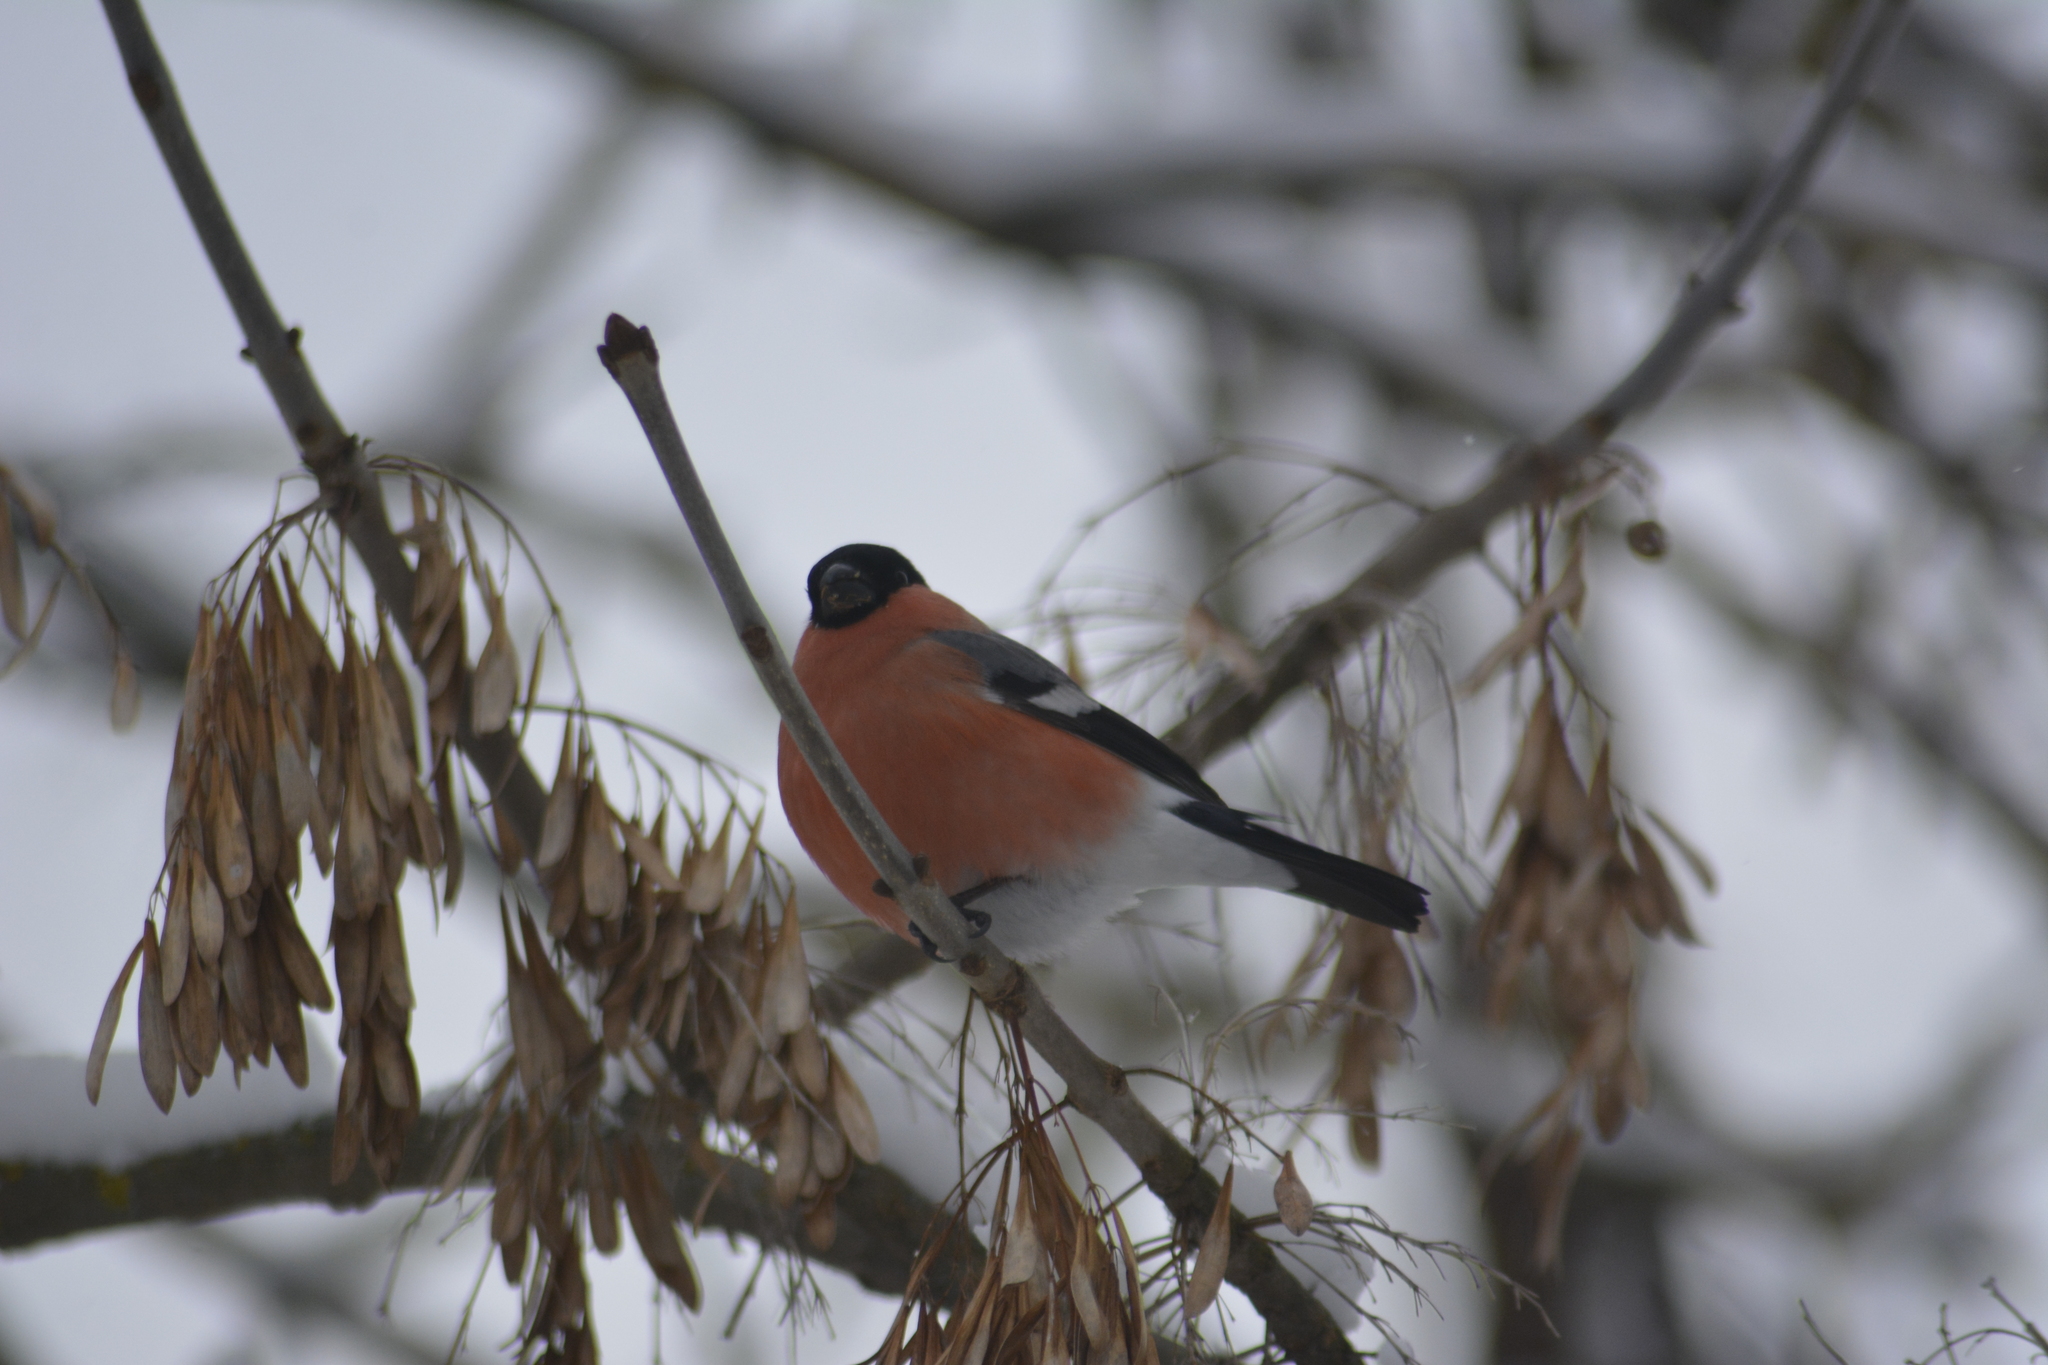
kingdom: Animalia
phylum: Chordata
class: Aves
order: Passeriformes
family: Fringillidae
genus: Pyrrhula
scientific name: Pyrrhula pyrrhula
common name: Eurasian bullfinch
